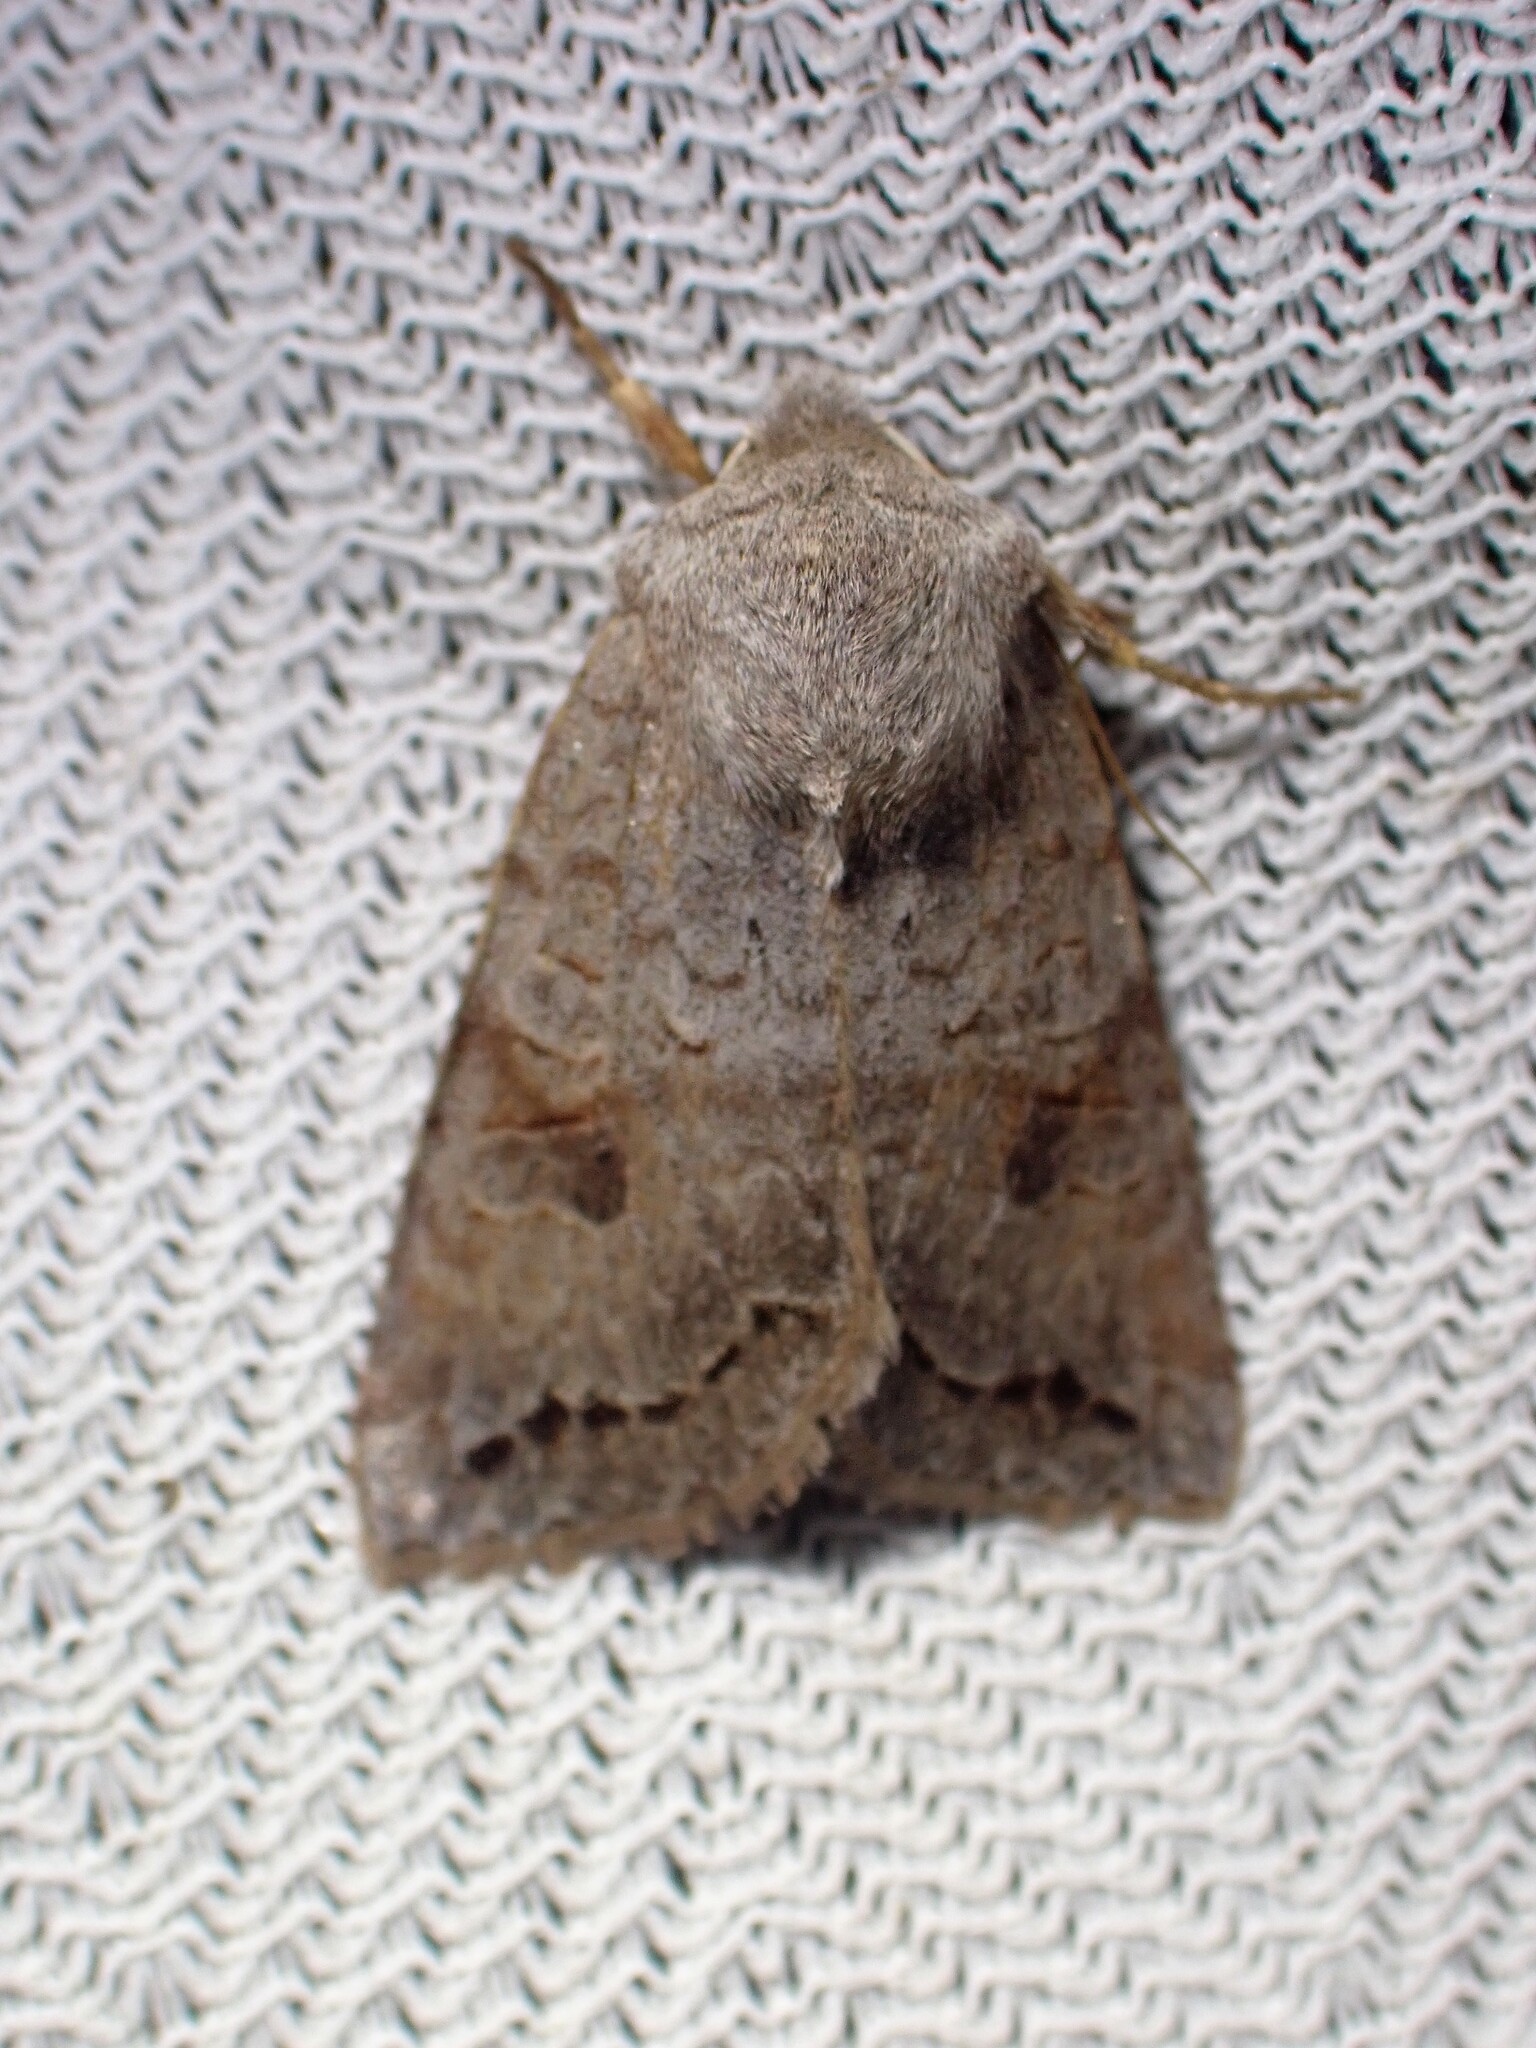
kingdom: Animalia
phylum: Arthropoda
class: Insecta
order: Lepidoptera
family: Noctuidae
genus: Orthosia
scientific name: Orthosia revicta
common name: Rusty whitesided caterpillar
